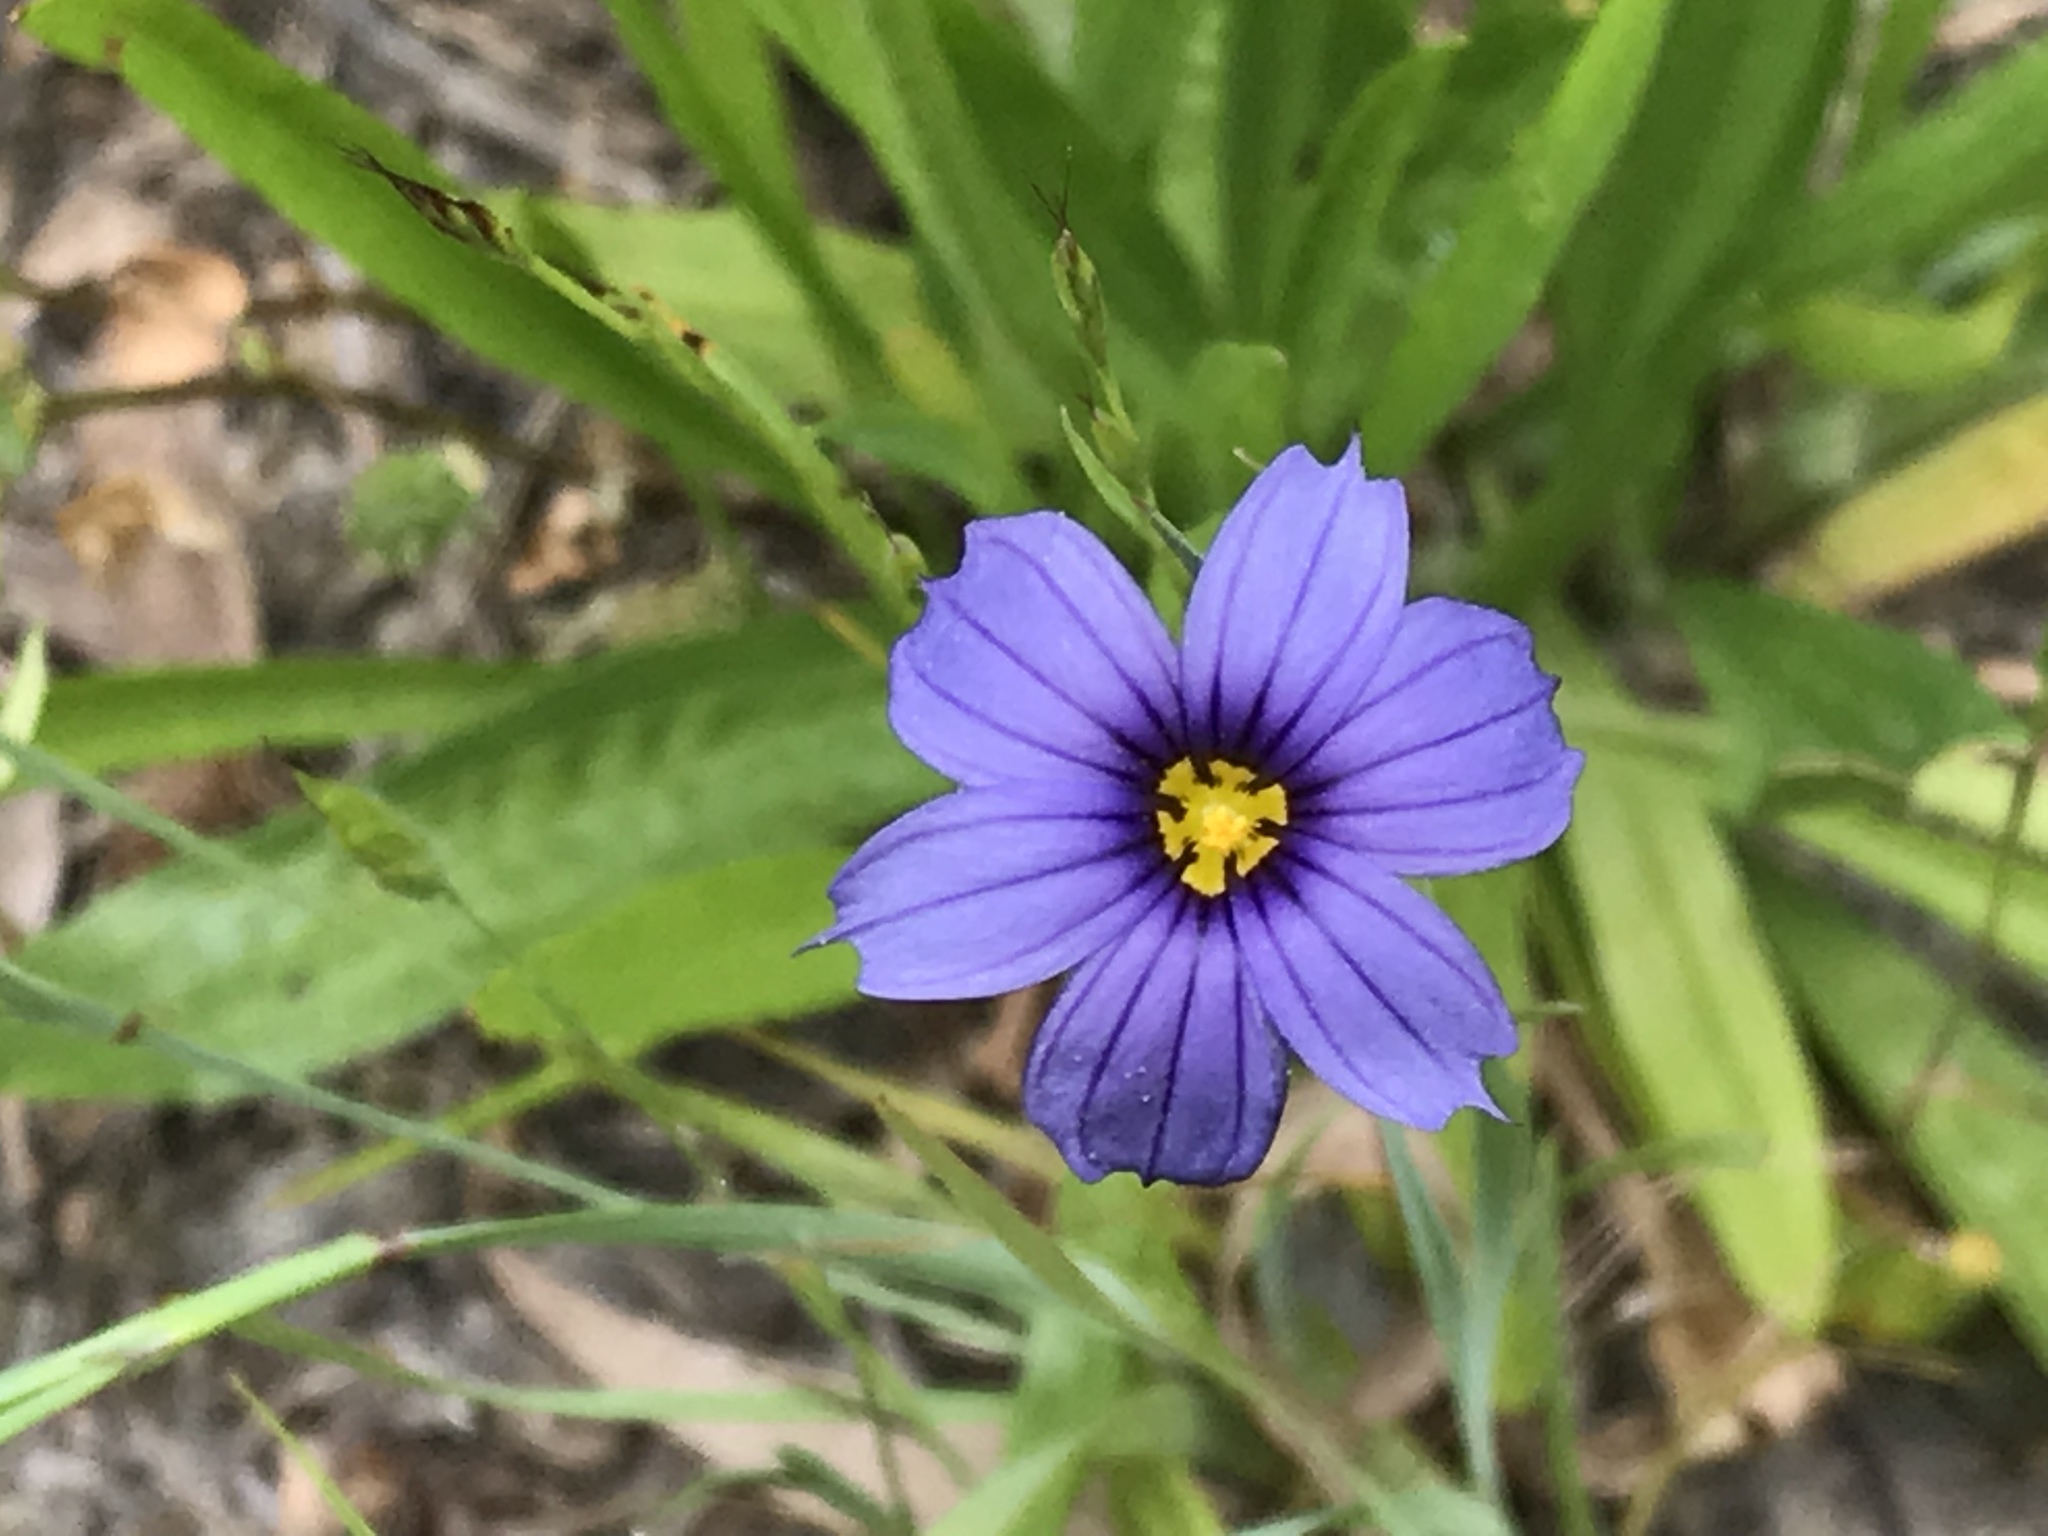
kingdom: Plantae
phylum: Tracheophyta
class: Liliopsida
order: Asparagales
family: Iridaceae
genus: Sisyrinchium
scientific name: Sisyrinchium bellum
